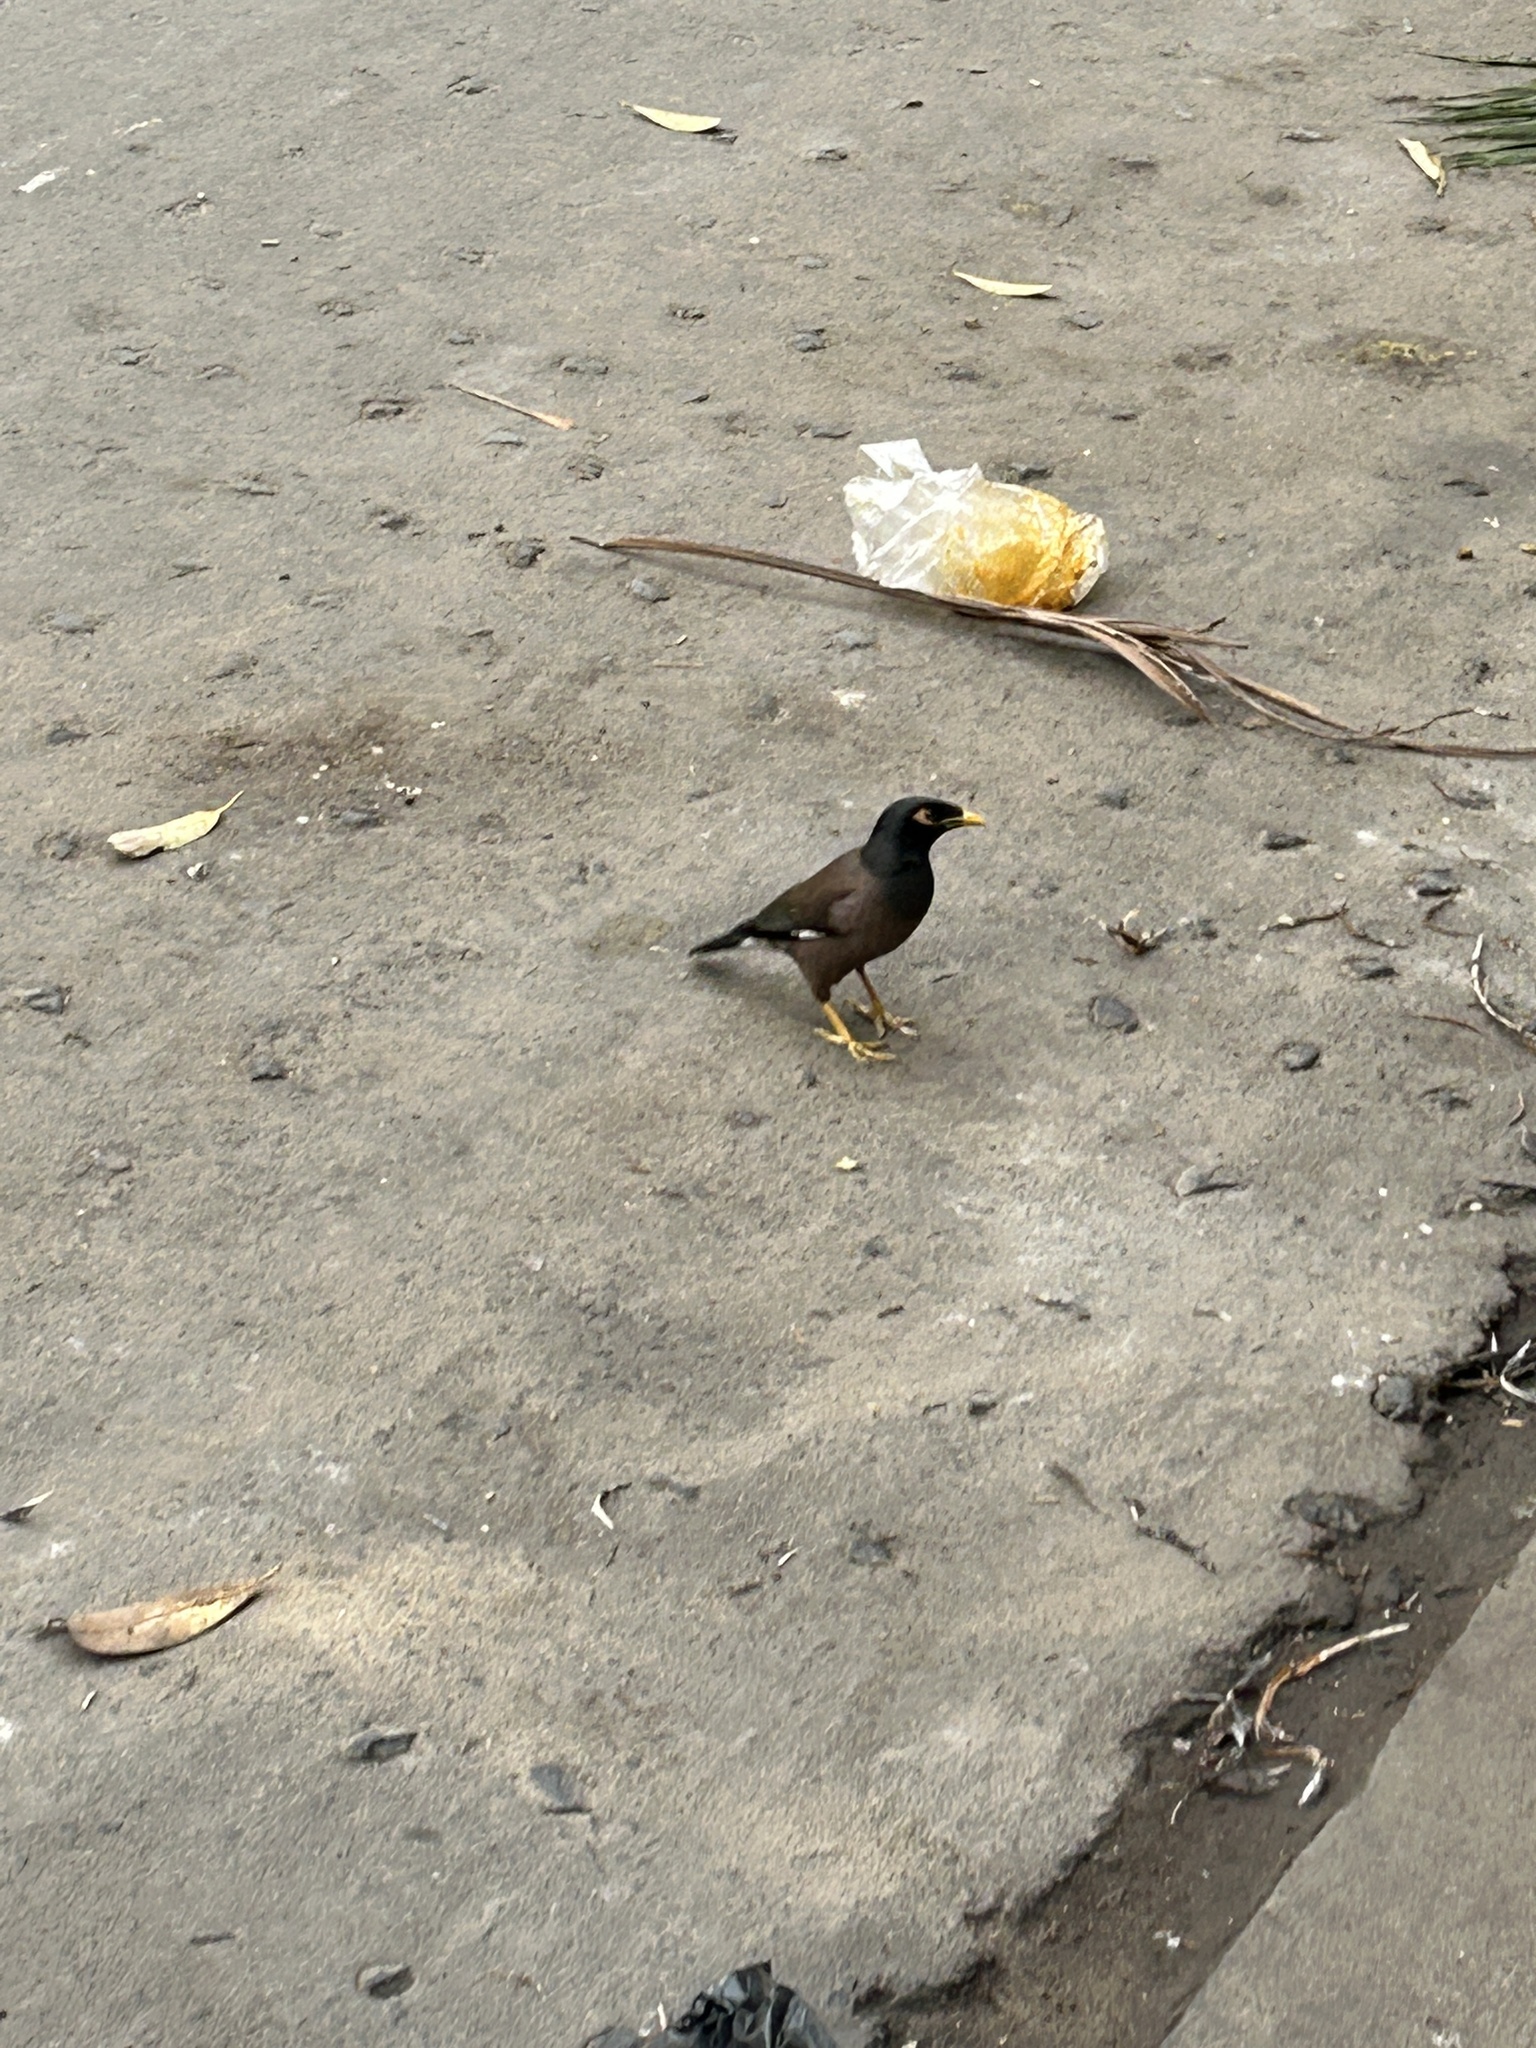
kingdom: Animalia
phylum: Chordata
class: Aves
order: Passeriformes
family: Sturnidae
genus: Acridotheres
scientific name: Acridotheres tristis
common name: Common myna
